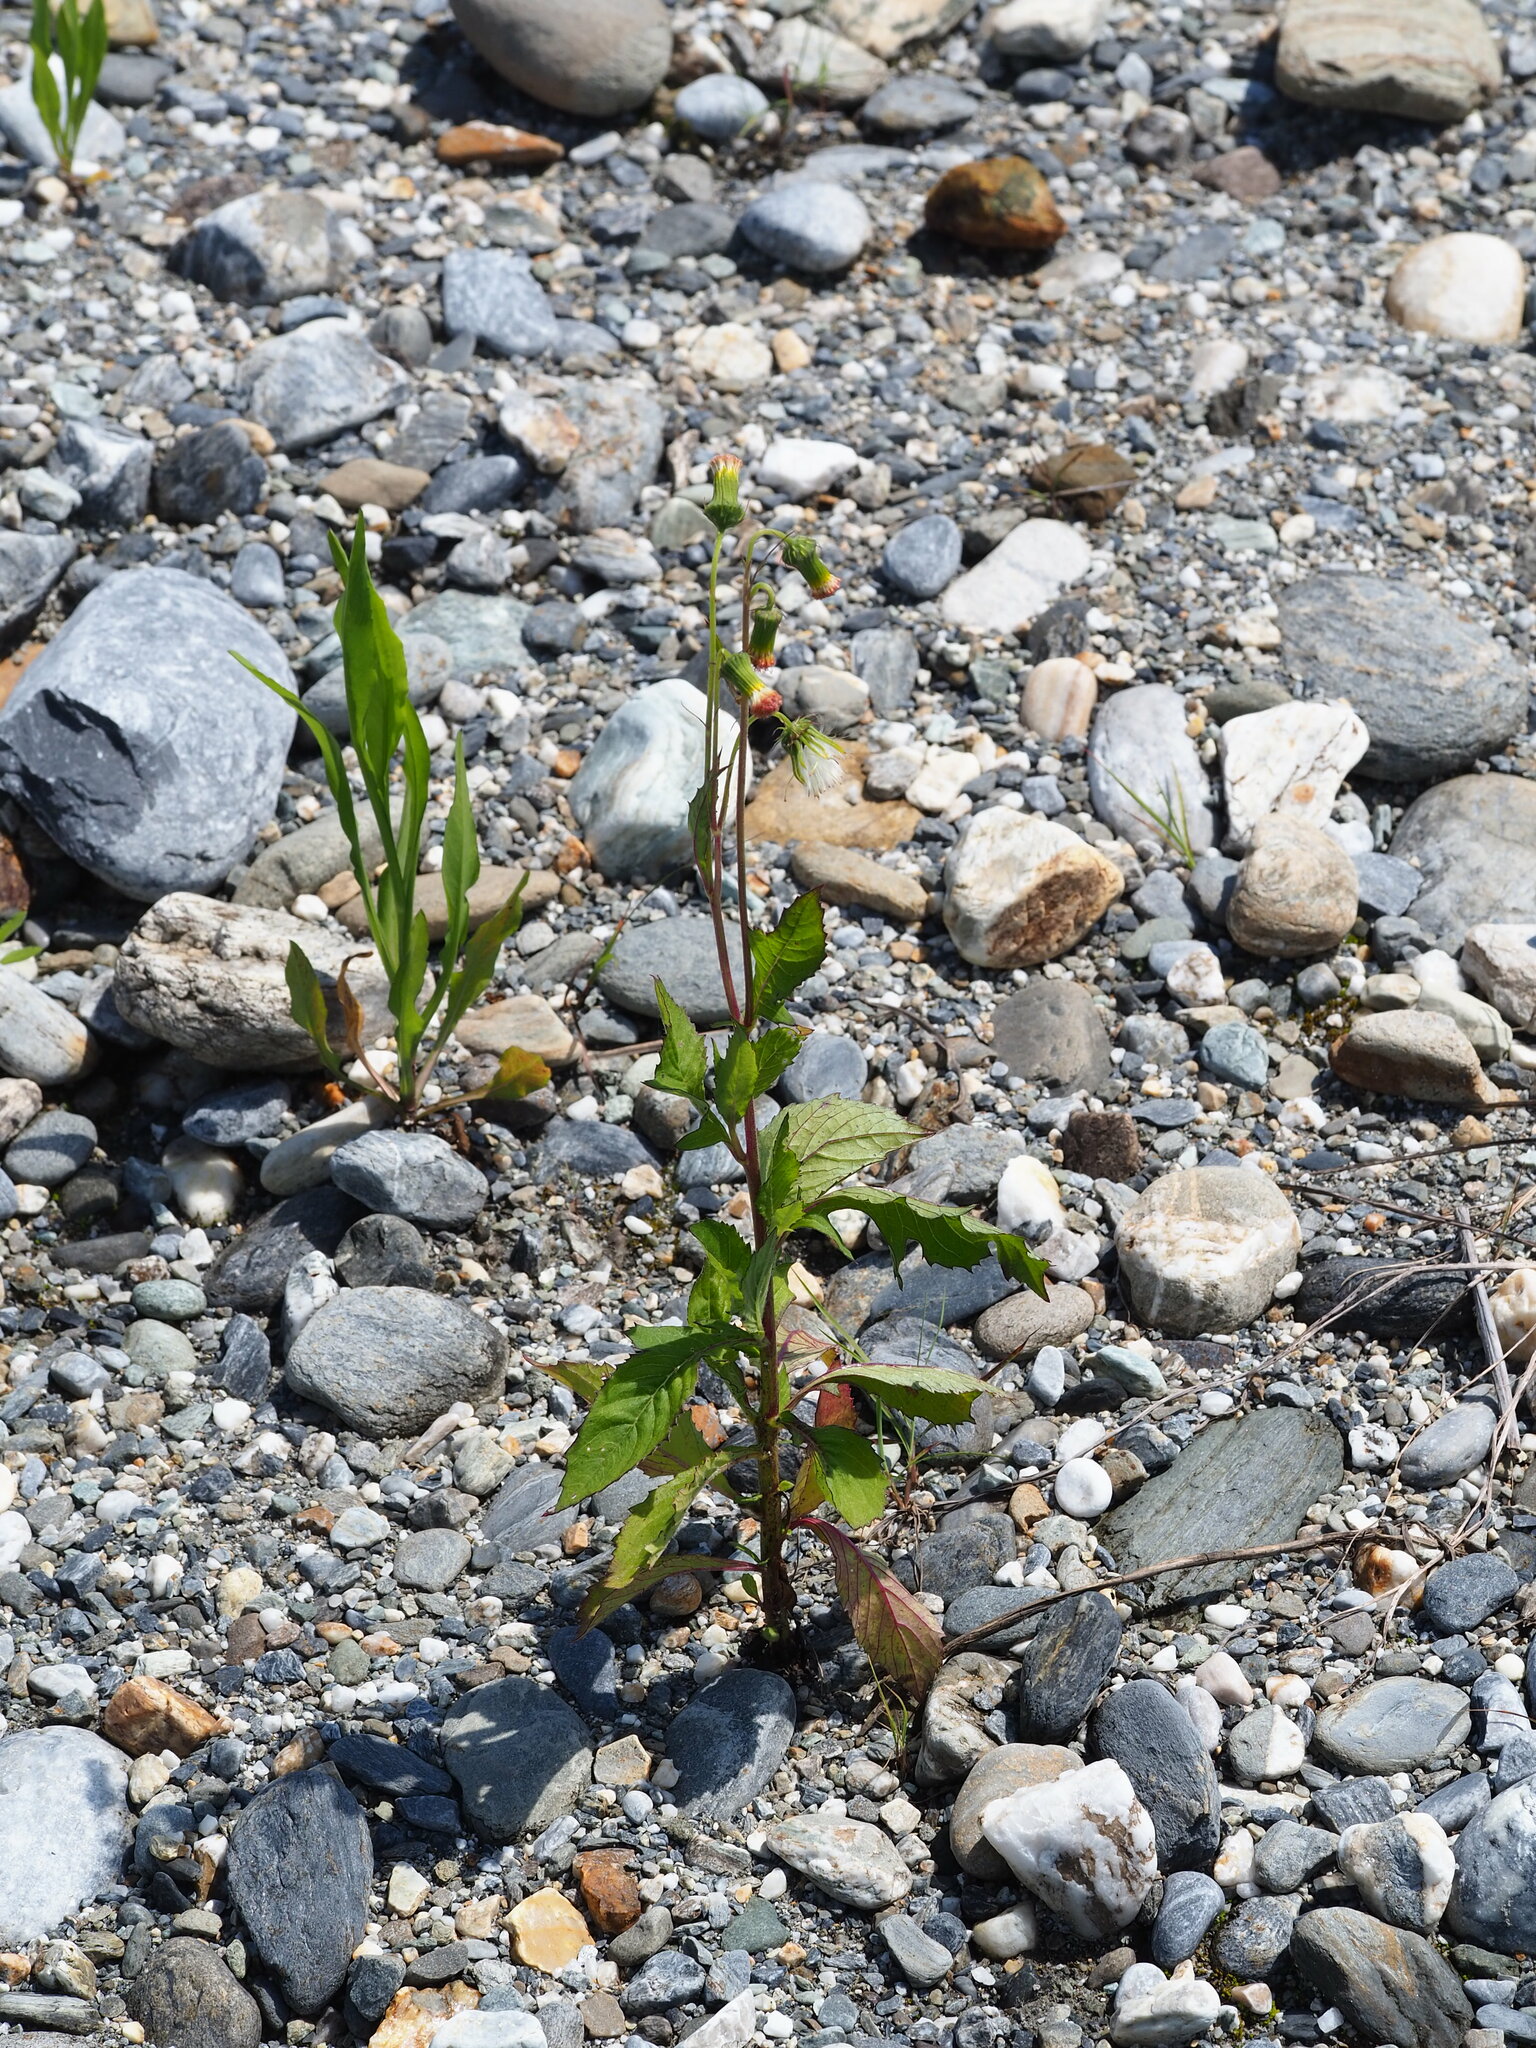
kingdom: Plantae
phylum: Tracheophyta
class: Magnoliopsida
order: Asterales
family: Asteraceae
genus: Crassocephalum
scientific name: Crassocephalum crepidioides
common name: Redflower ragleaf
